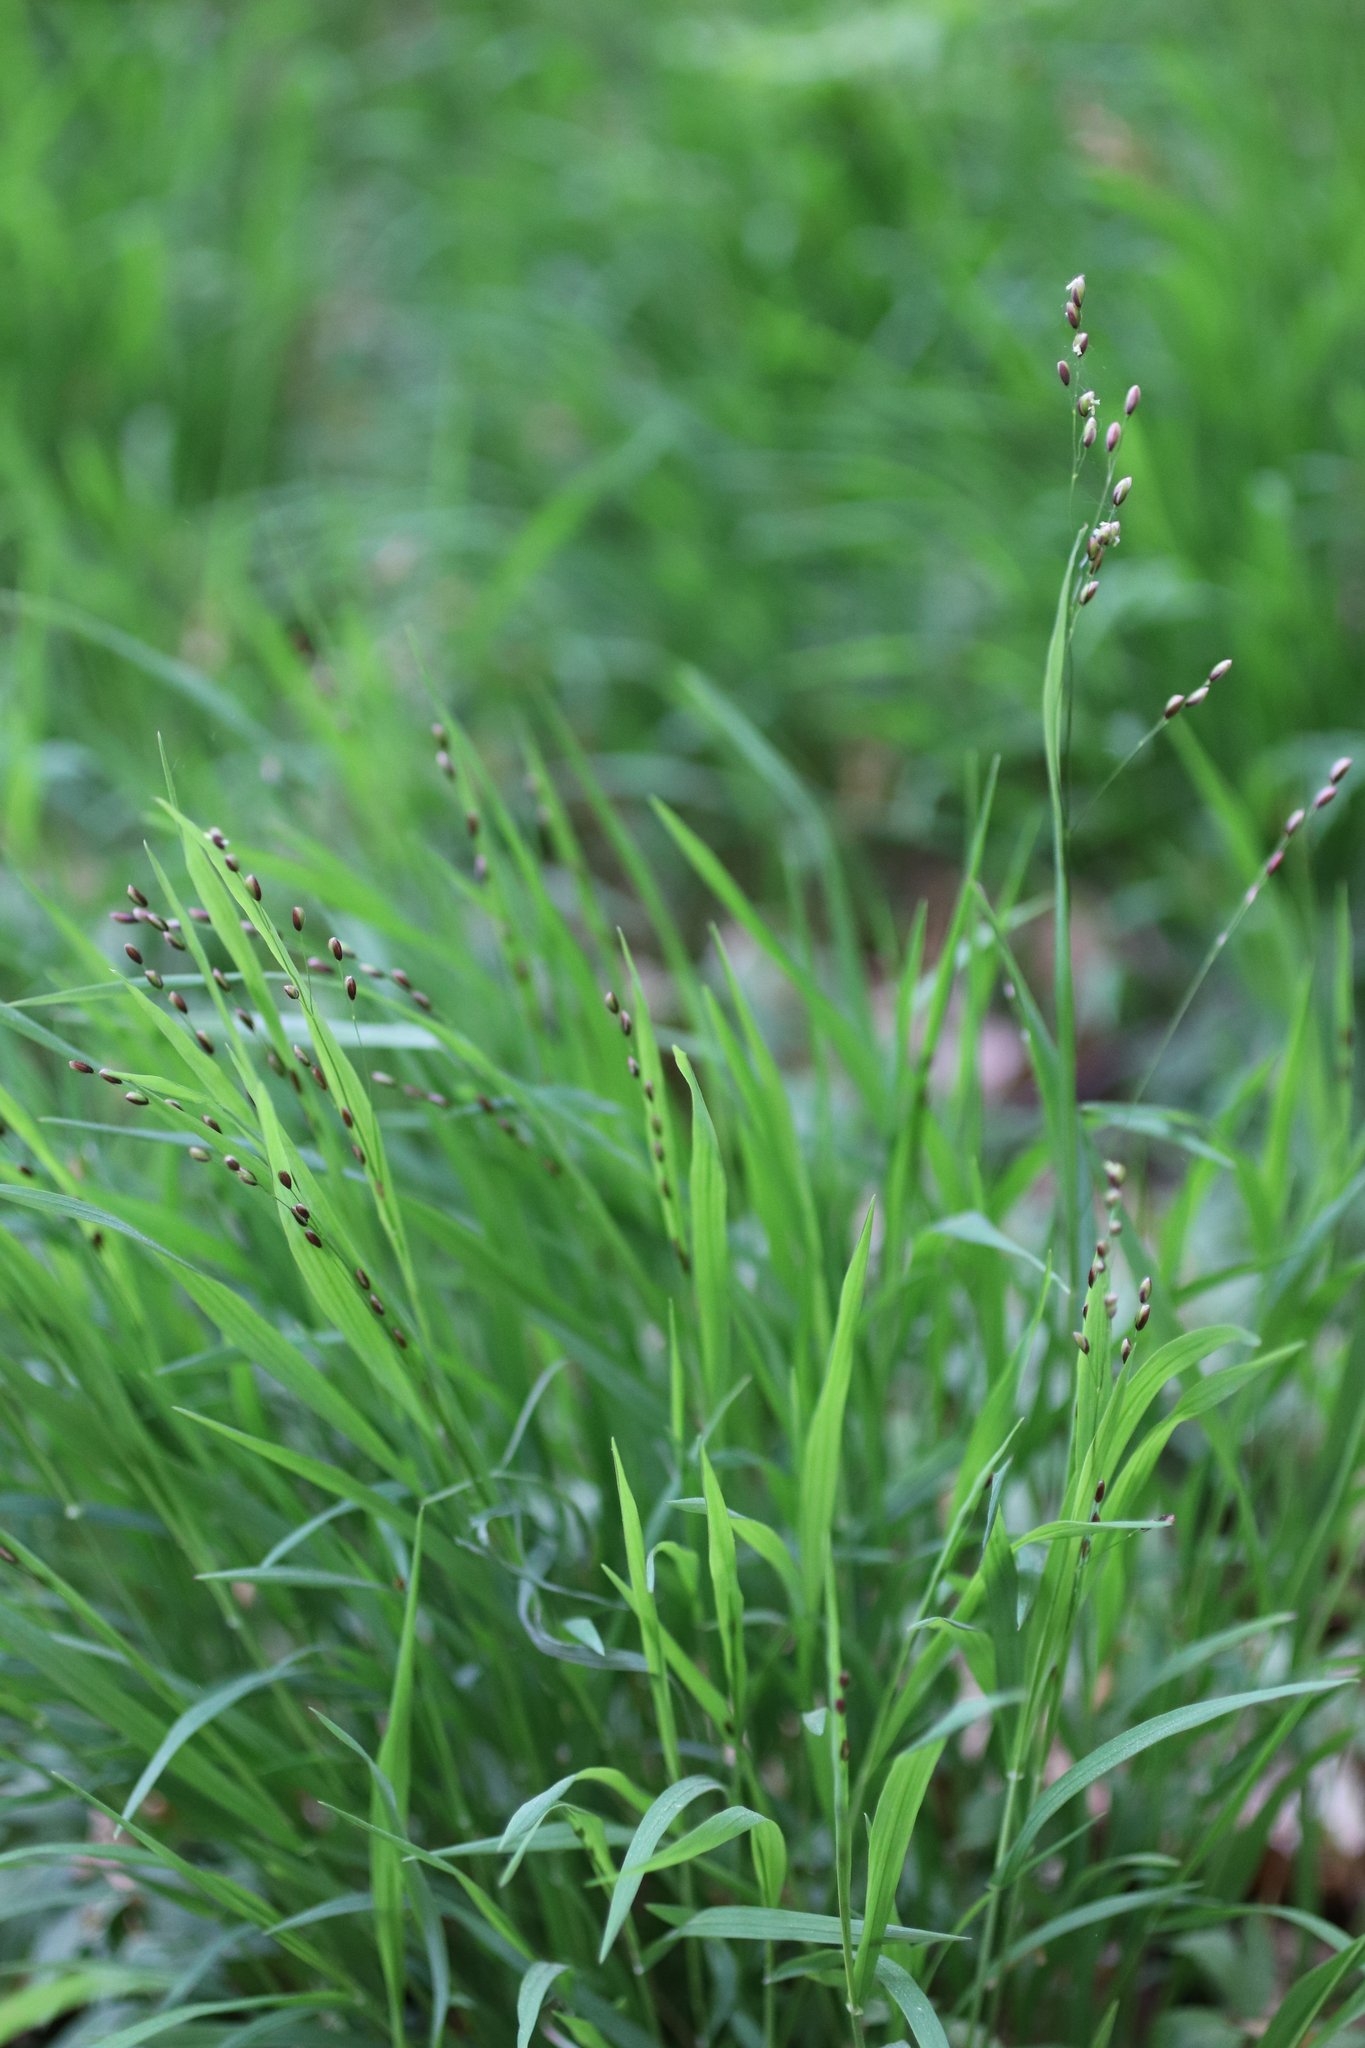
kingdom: Plantae
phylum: Tracheophyta
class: Liliopsida
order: Poales
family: Poaceae
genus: Melica
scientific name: Melica uniflora
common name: Wood melick
